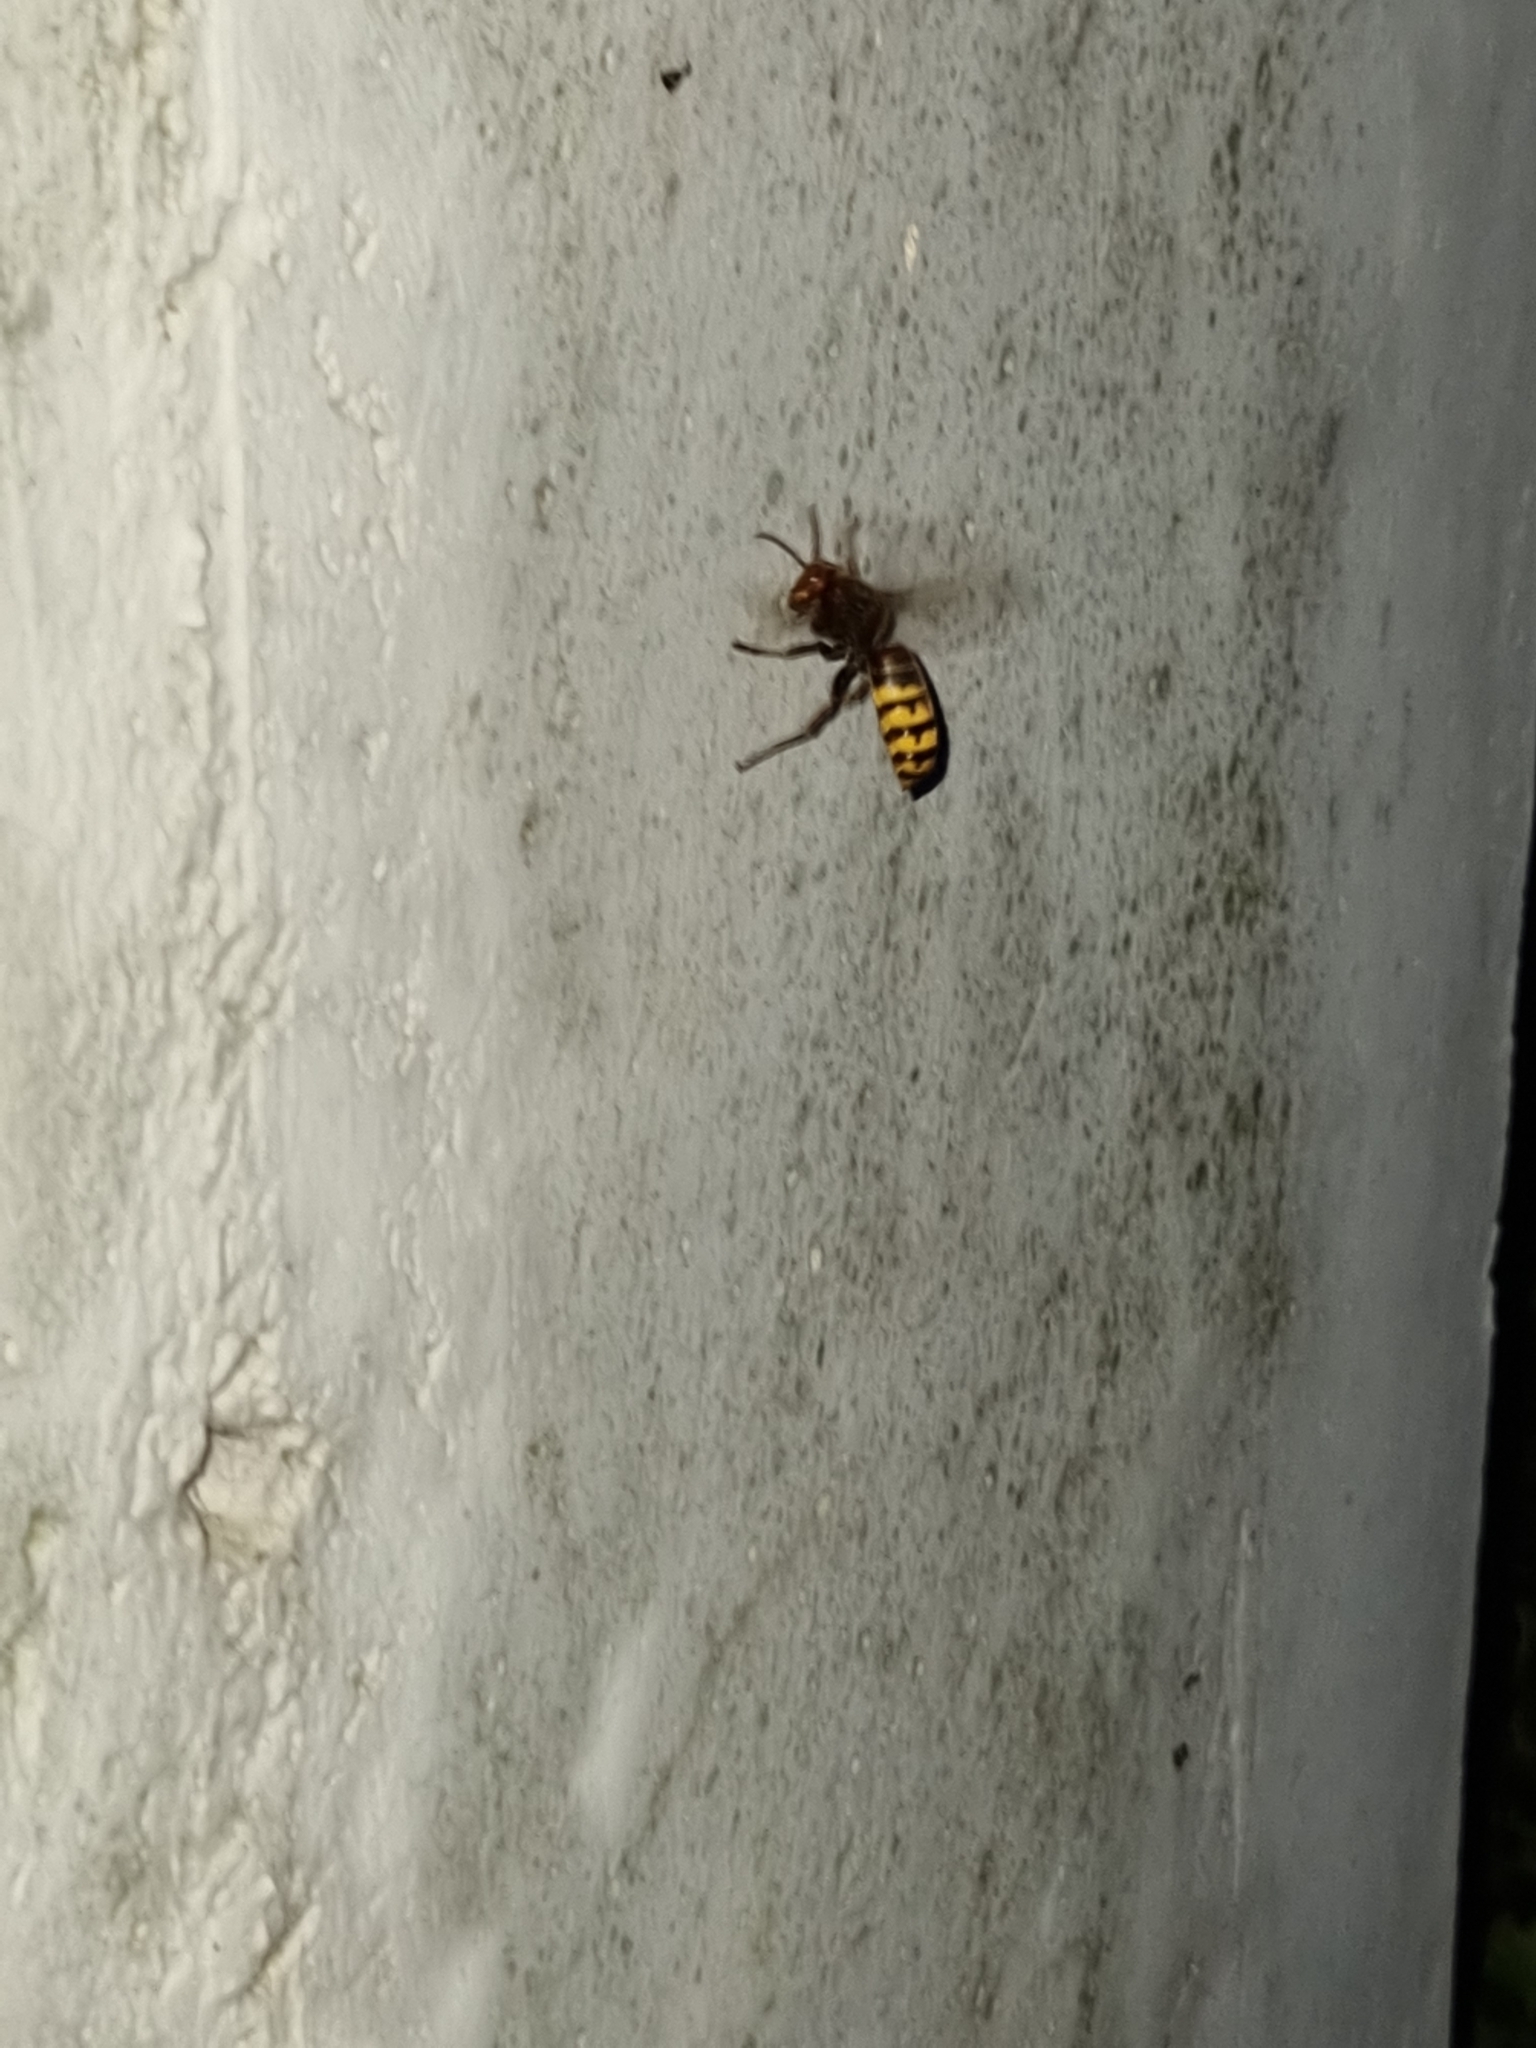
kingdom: Animalia
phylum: Arthropoda
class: Insecta
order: Hymenoptera
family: Vespidae
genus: Vespa
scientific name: Vespa crabro
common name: Hornet
